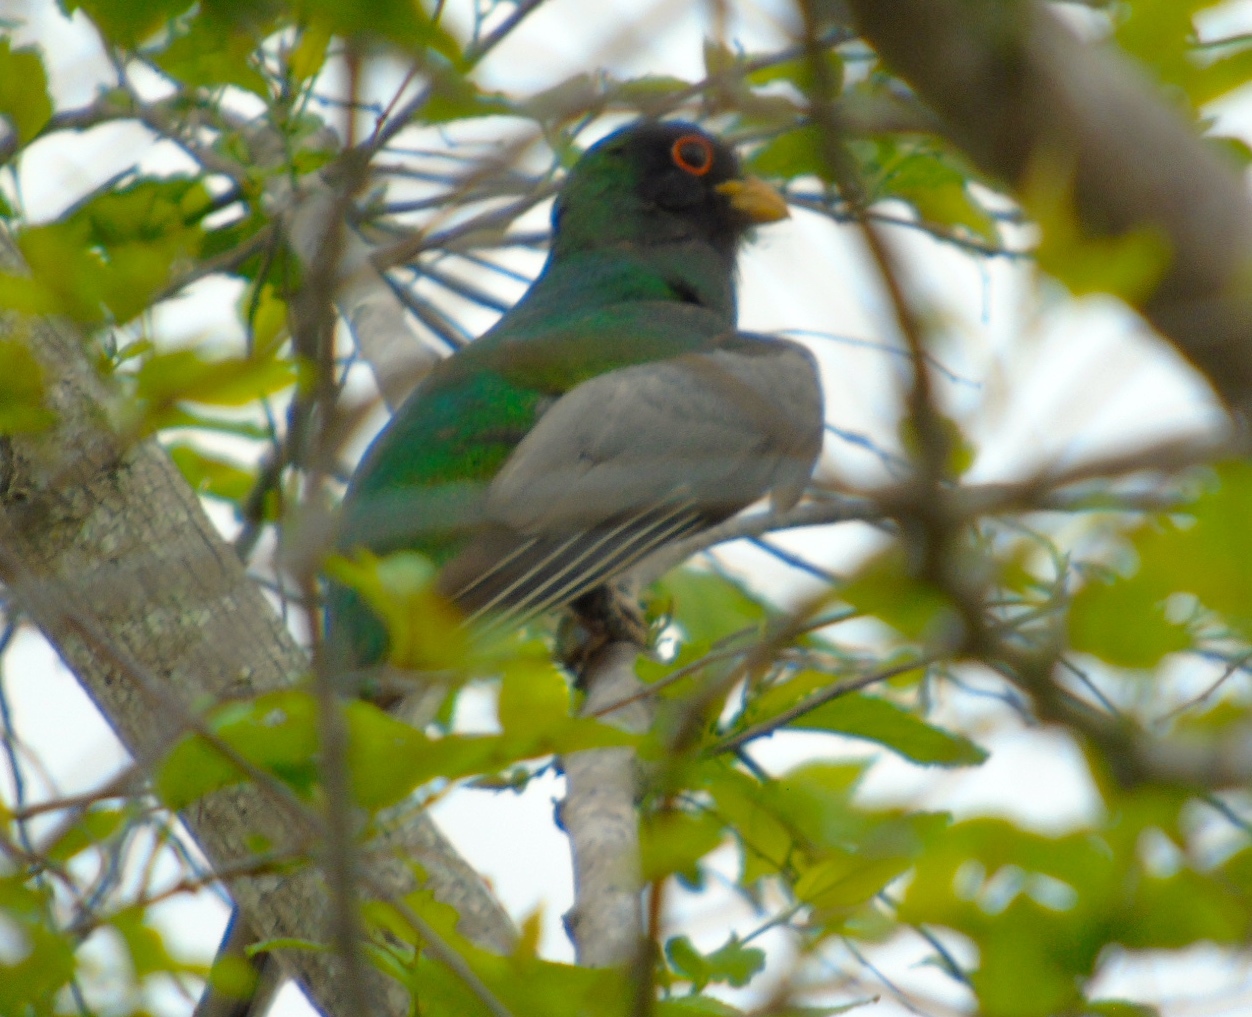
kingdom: Animalia
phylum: Chordata
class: Aves
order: Trogoniformes
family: Trogonidae
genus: Trogon
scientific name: Trogon elegans
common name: Elegant trogon
